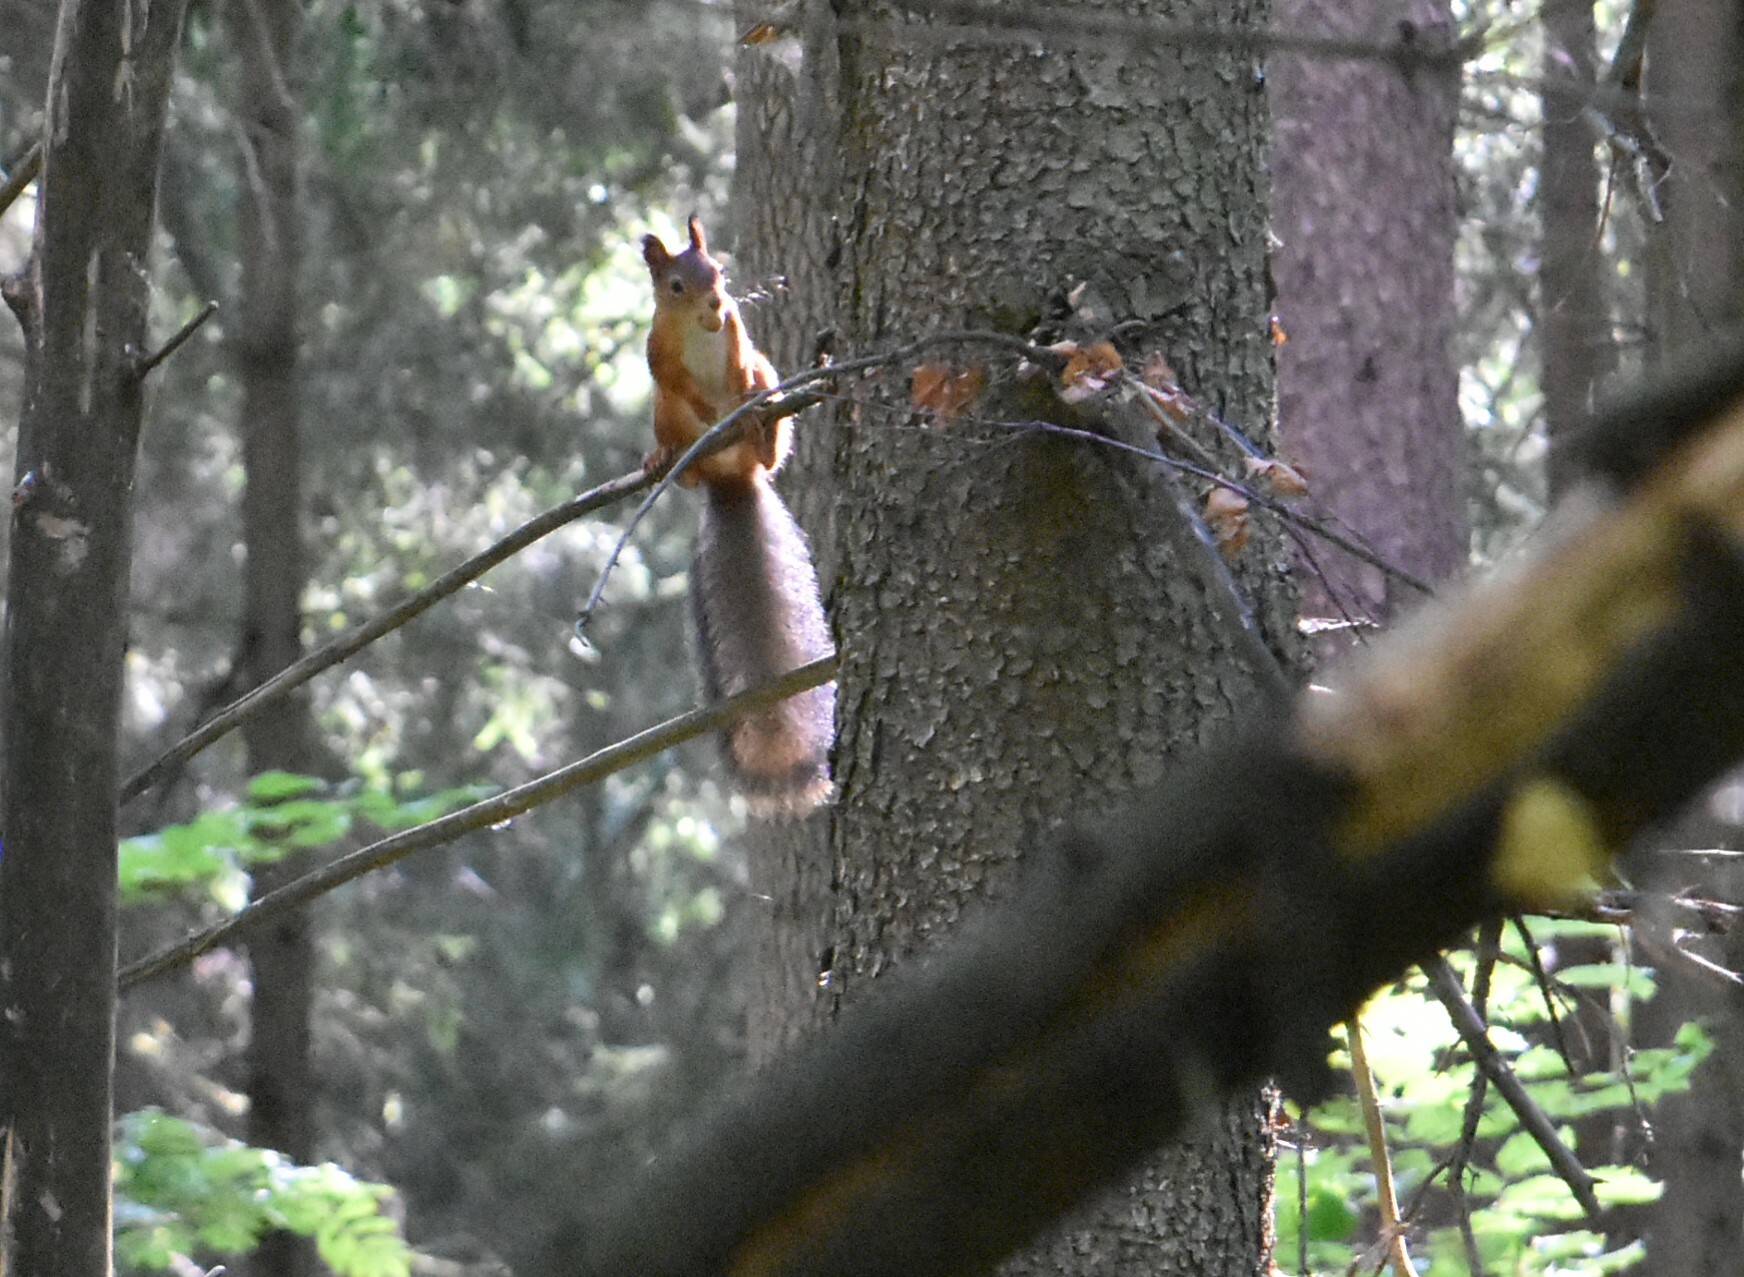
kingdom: Animalia
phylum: Chordata
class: Mammalia
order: Rodentia
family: Sciuridae
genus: Sciurus
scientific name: Sciurus vulgaris
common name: Eurasian red squirrel
